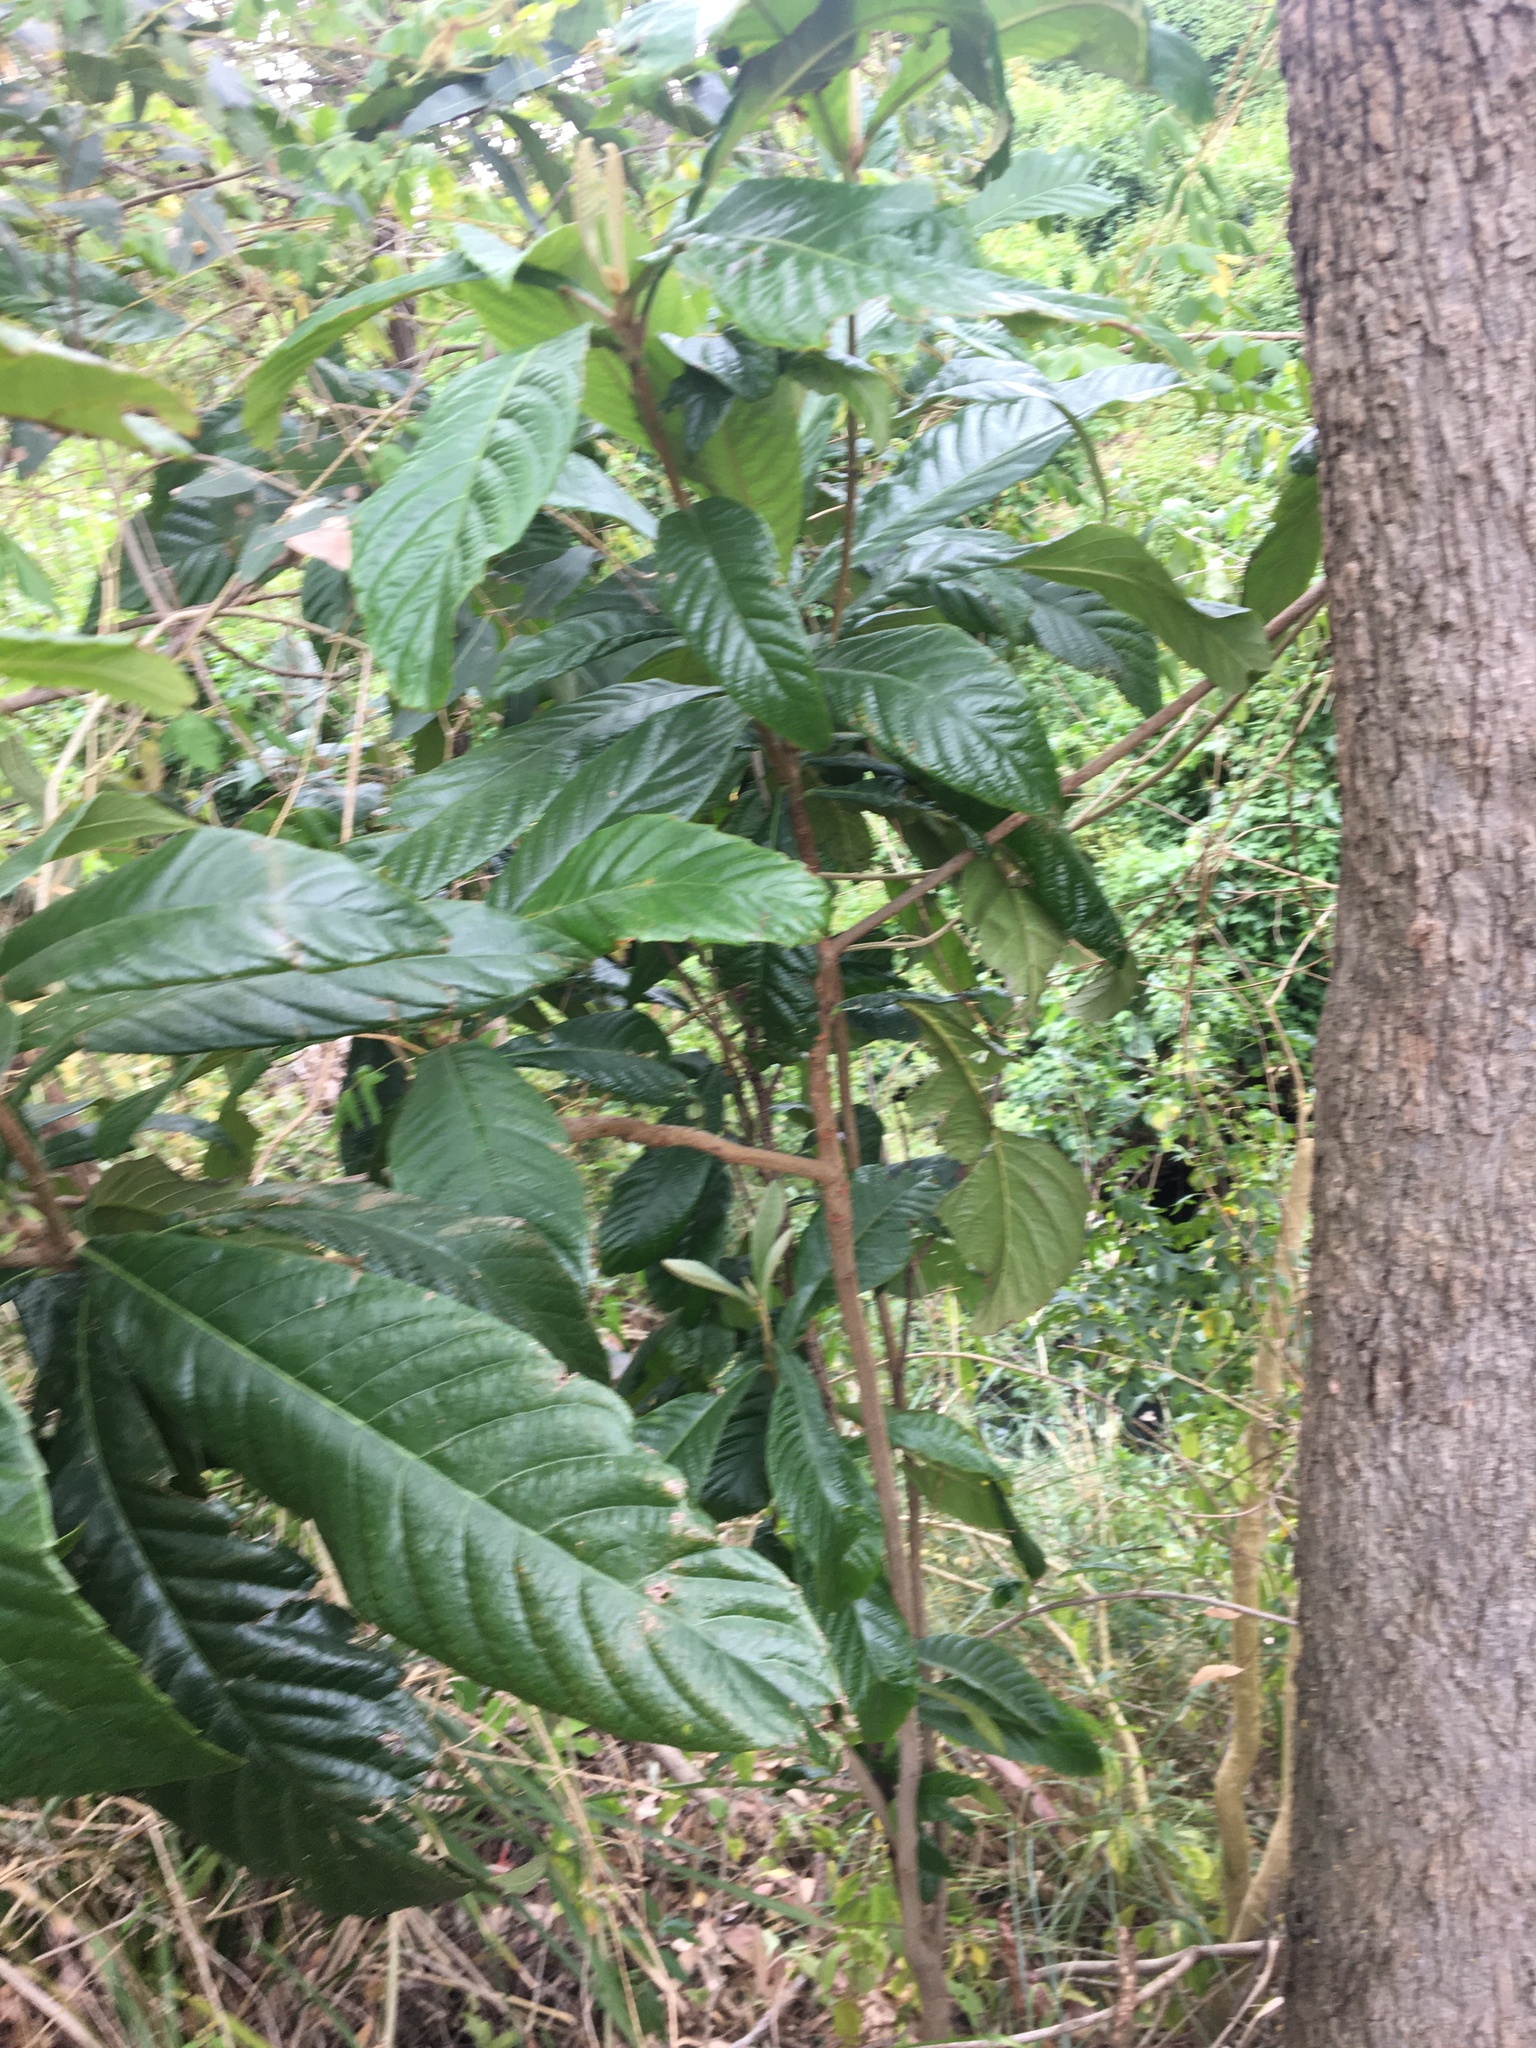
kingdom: Plantae
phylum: Tracheophyta
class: Magnoliopsida
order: Rosales
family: Rosaceae
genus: Rhaphiolepis
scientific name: Rhaphiolepis bibas
